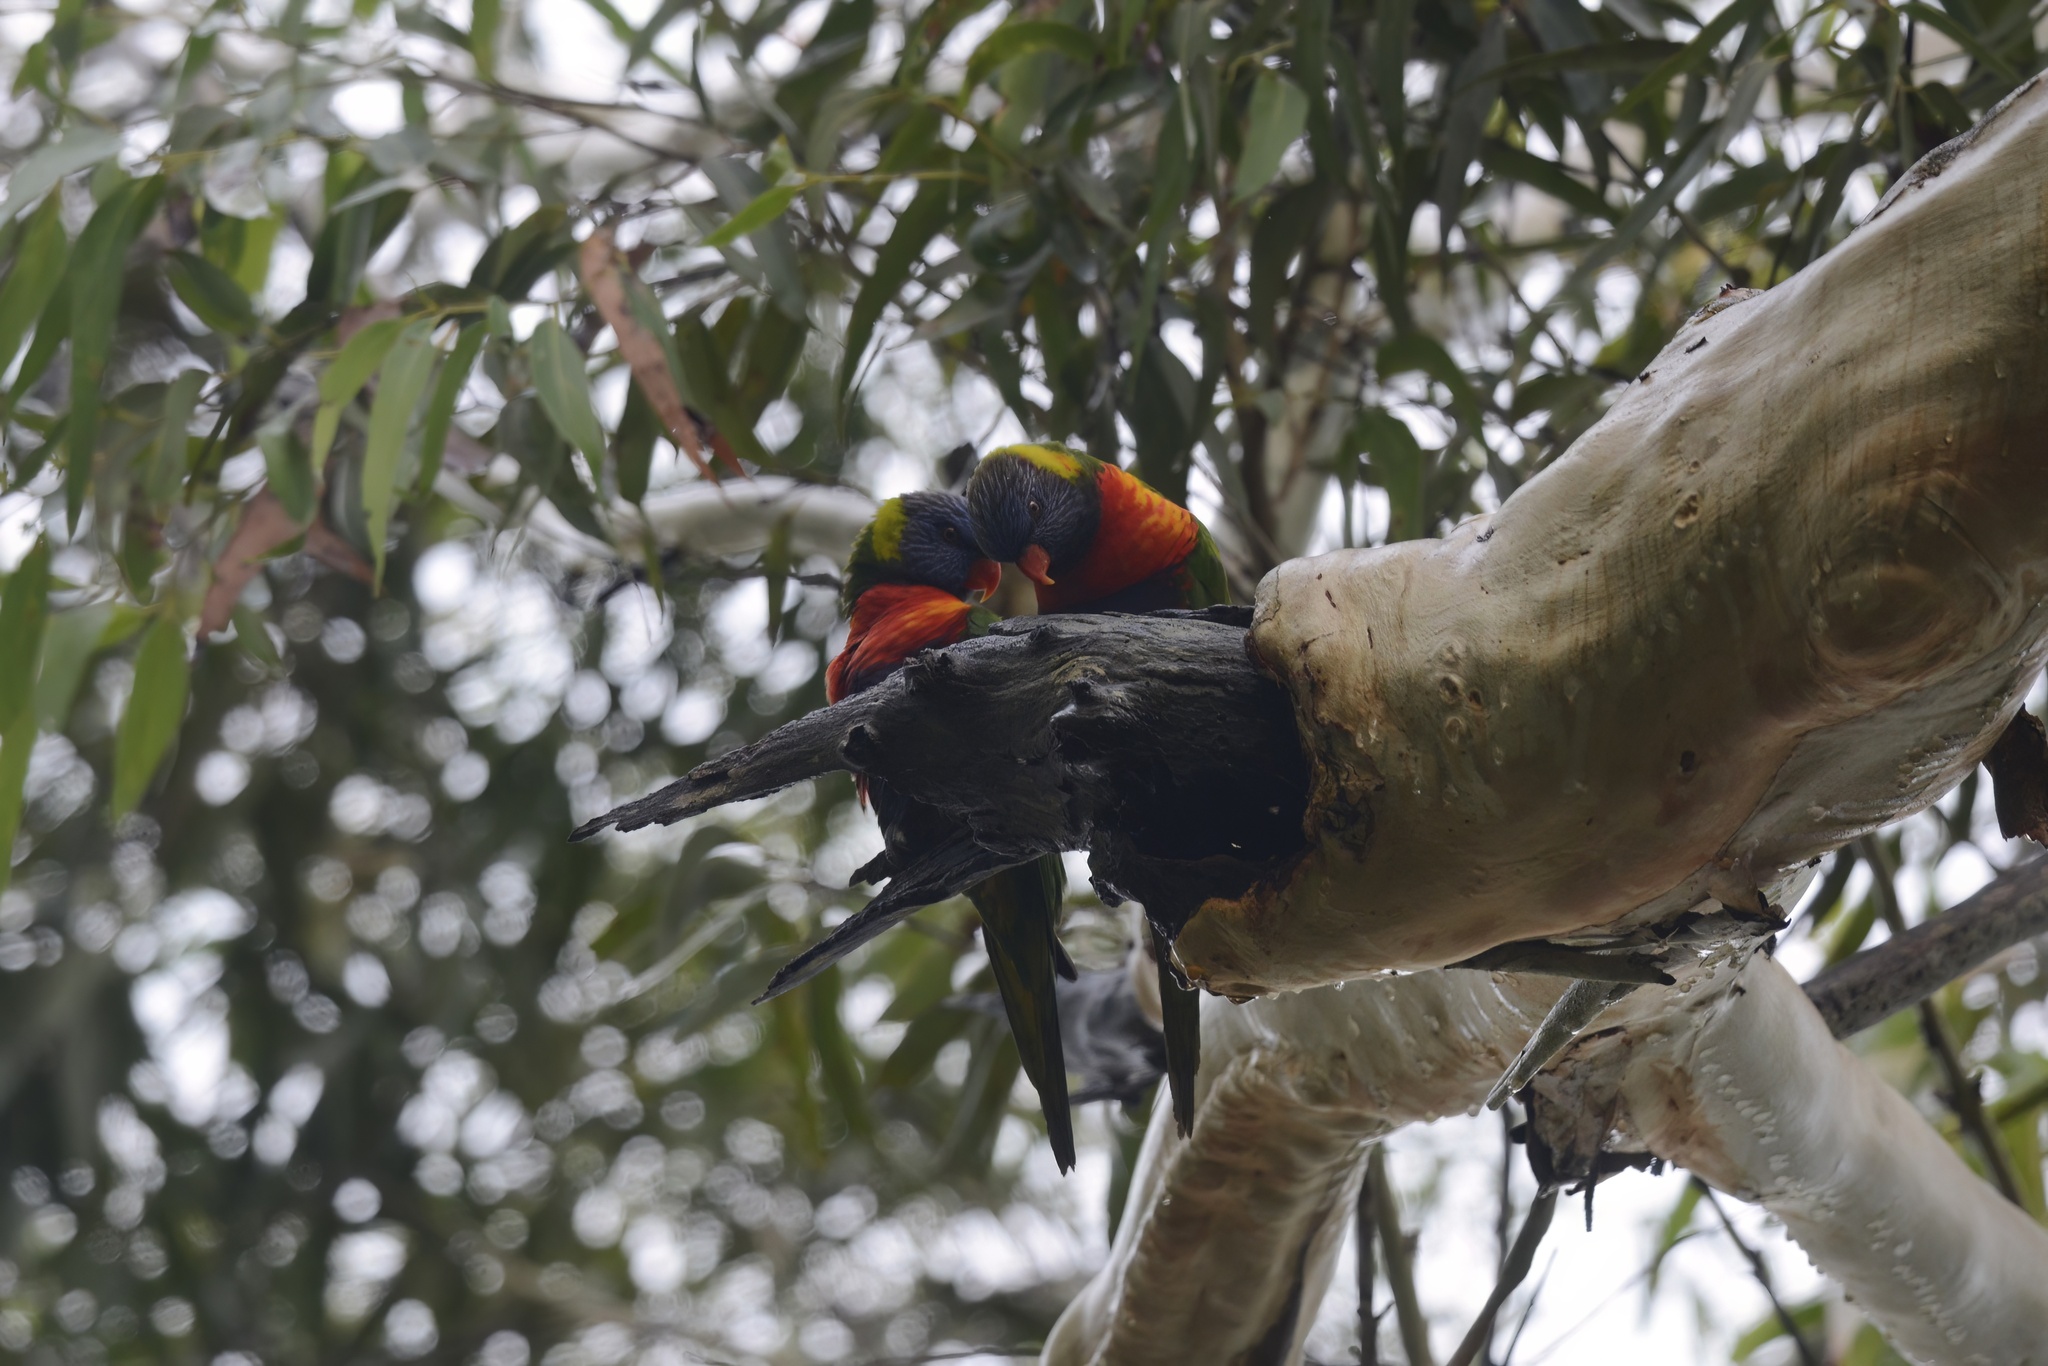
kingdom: Animalia
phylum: Chordata
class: Aves
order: Psittaciformes
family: Psittacidae
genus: Trichoglossus
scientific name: Trichoglossus haematodus
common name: Coconut lorikeet
